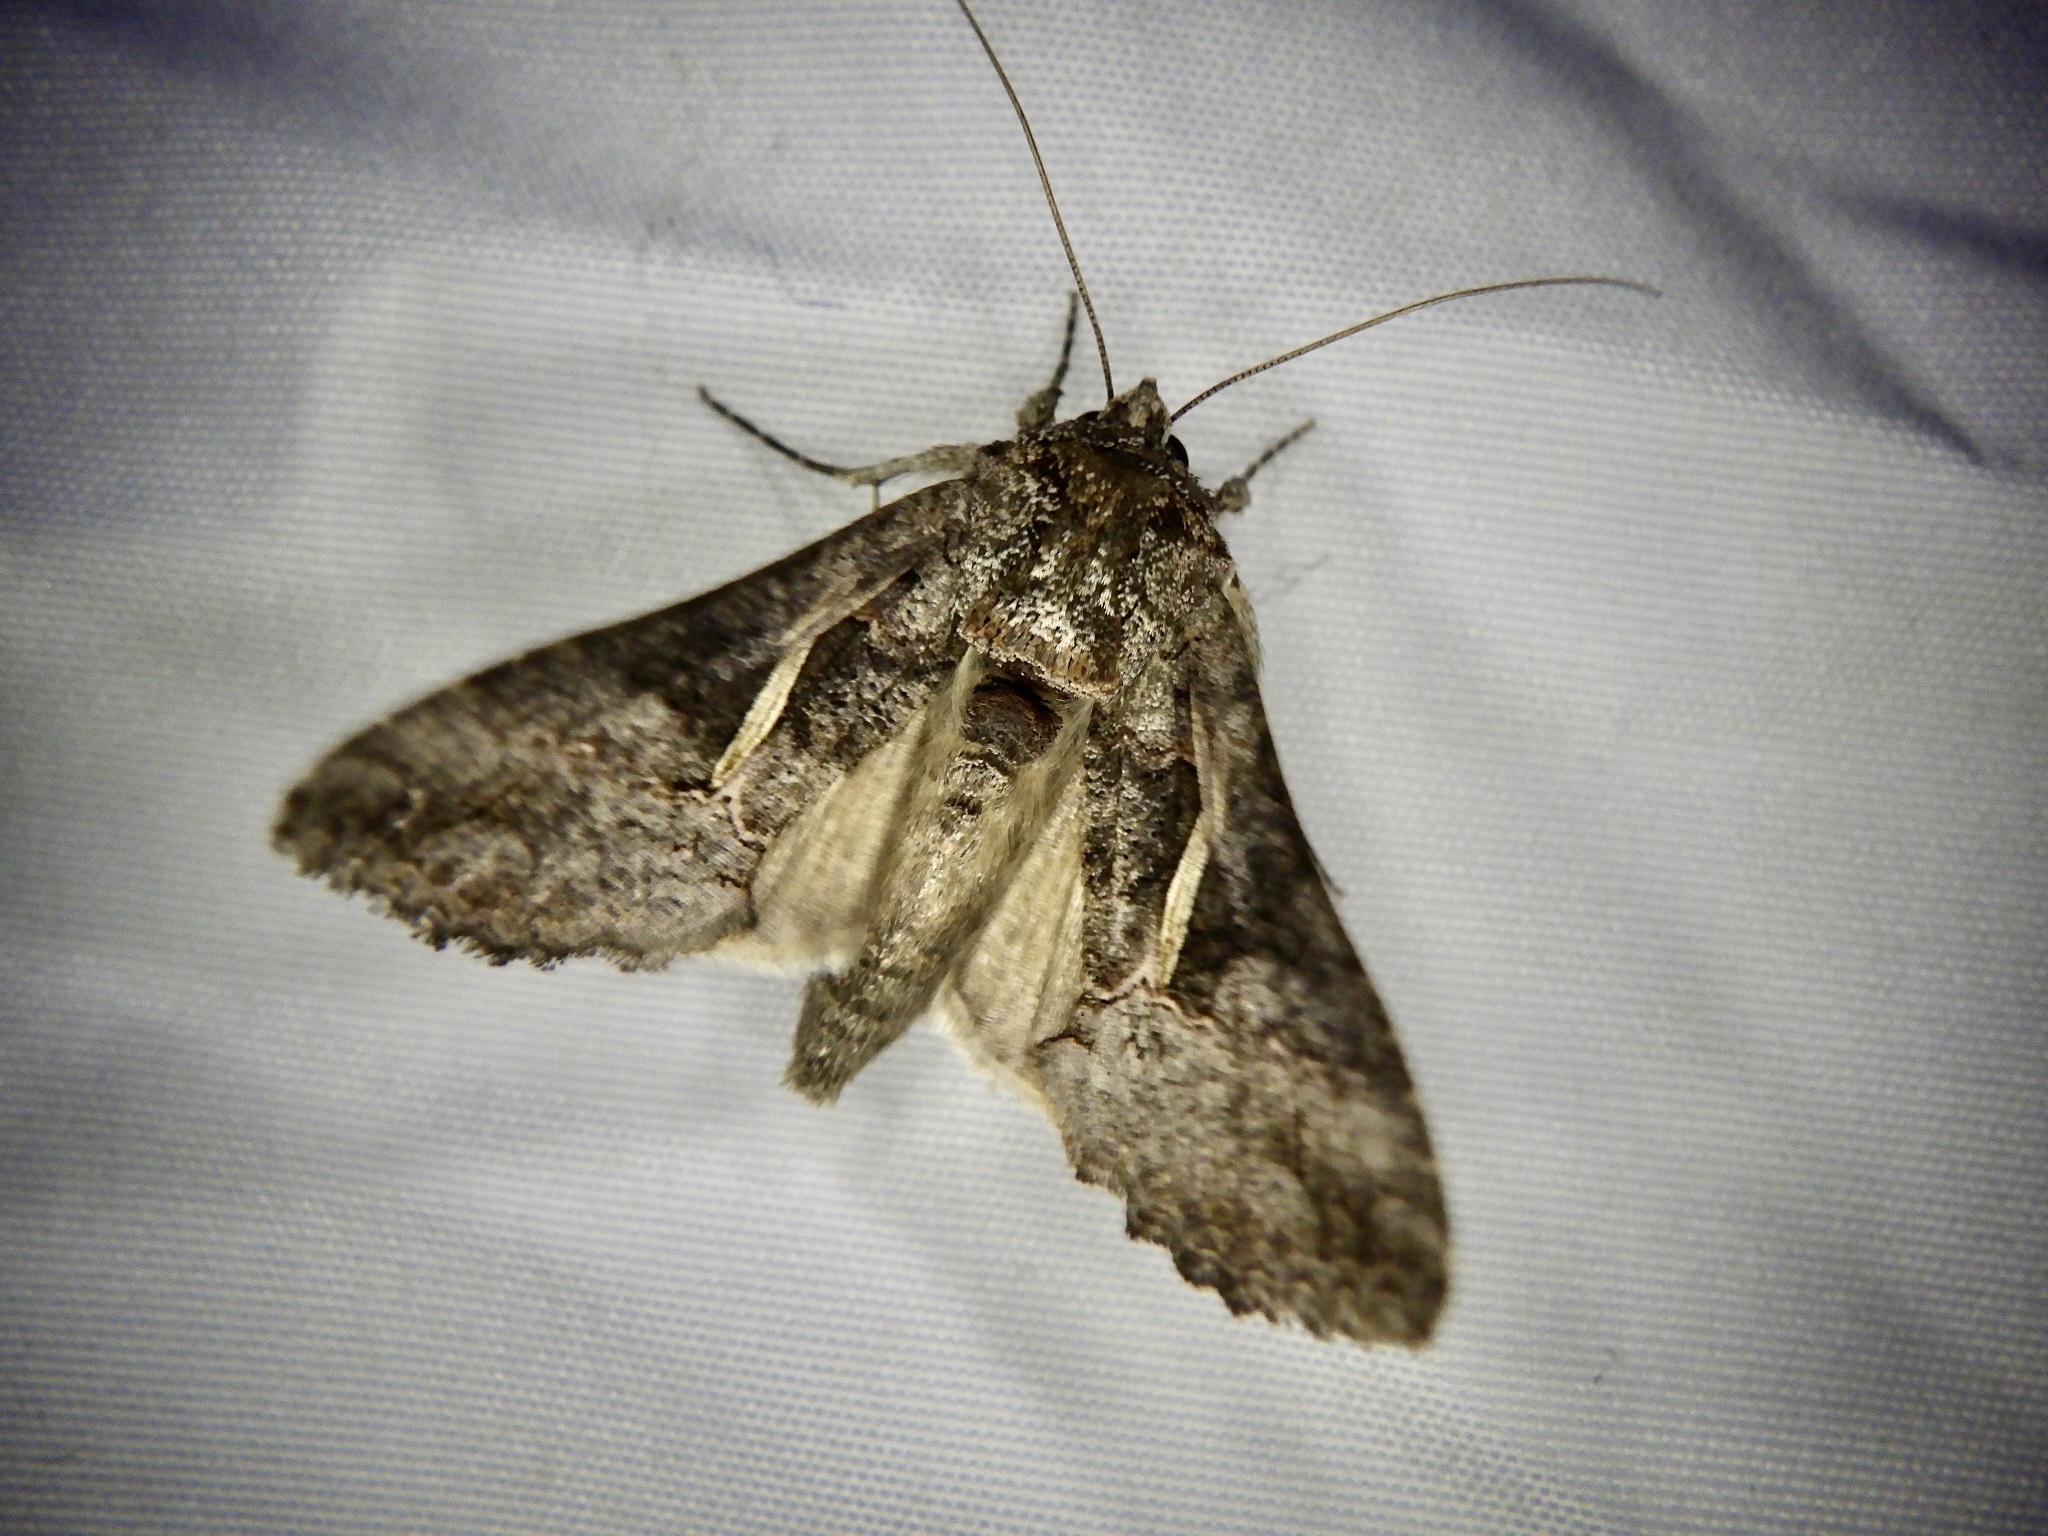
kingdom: Animalia
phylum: Arthropoda
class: Insecta
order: Lepidoptera
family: Noctuidae
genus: Ctenoplusia
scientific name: Ctenoplusia albostriata
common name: Moth
